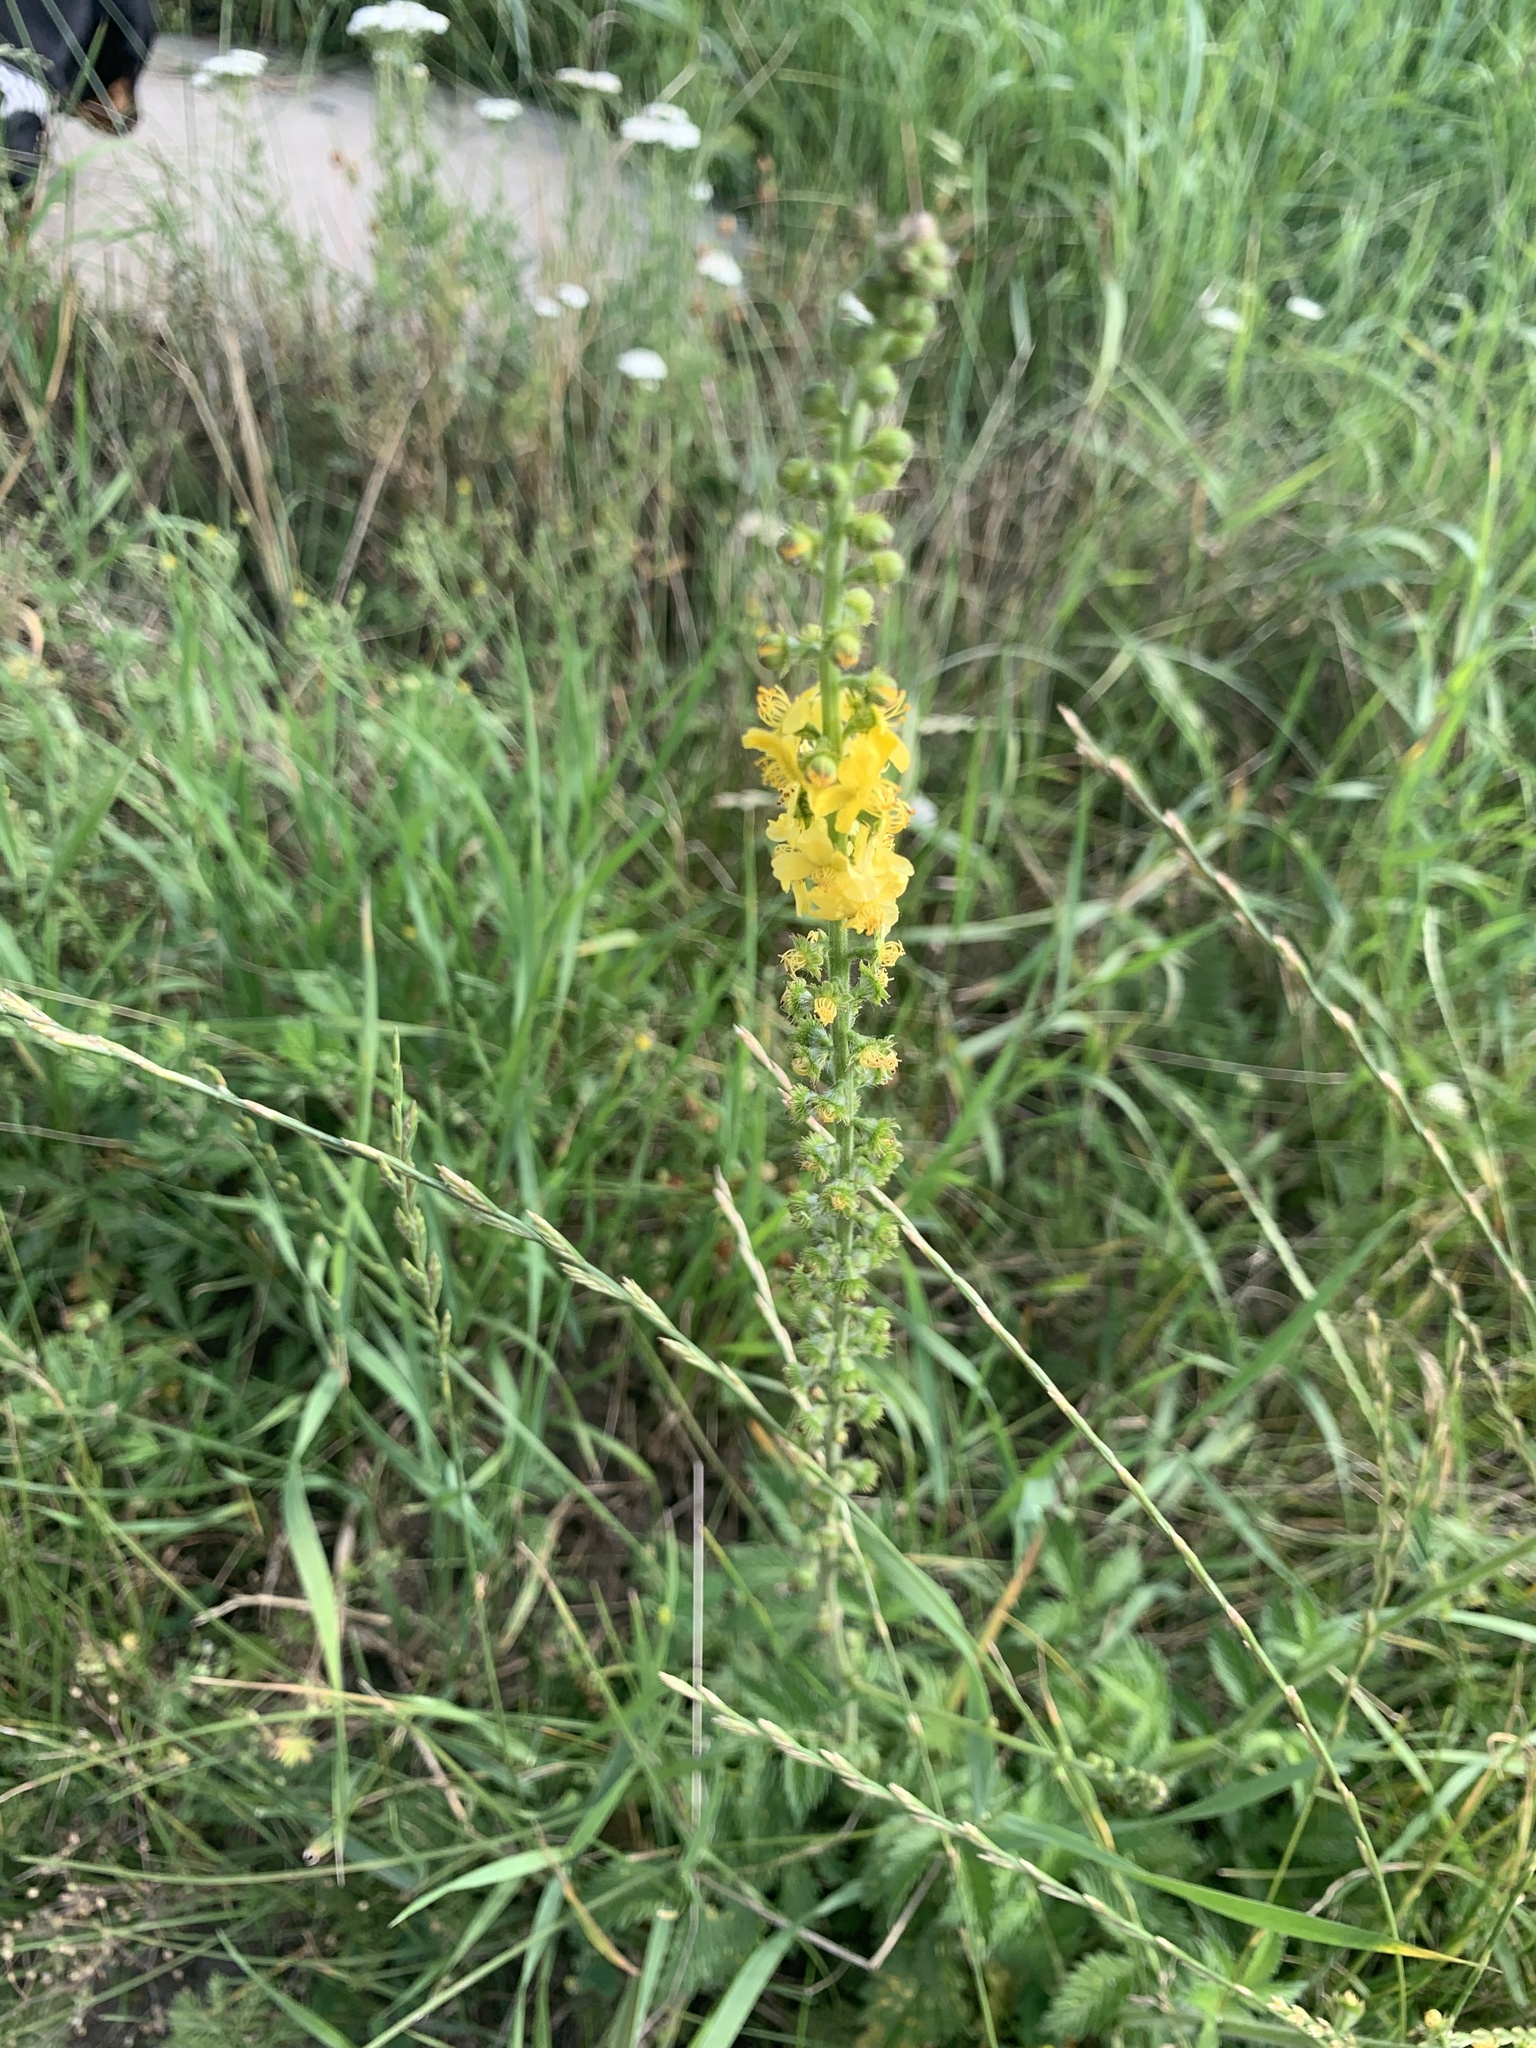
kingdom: Plantae
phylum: Tracheophyta
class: Magnoliopsida
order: Rosales
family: Rosaceae
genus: Agrimonia
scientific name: Agrimonia eupatoria
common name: Agrimony
